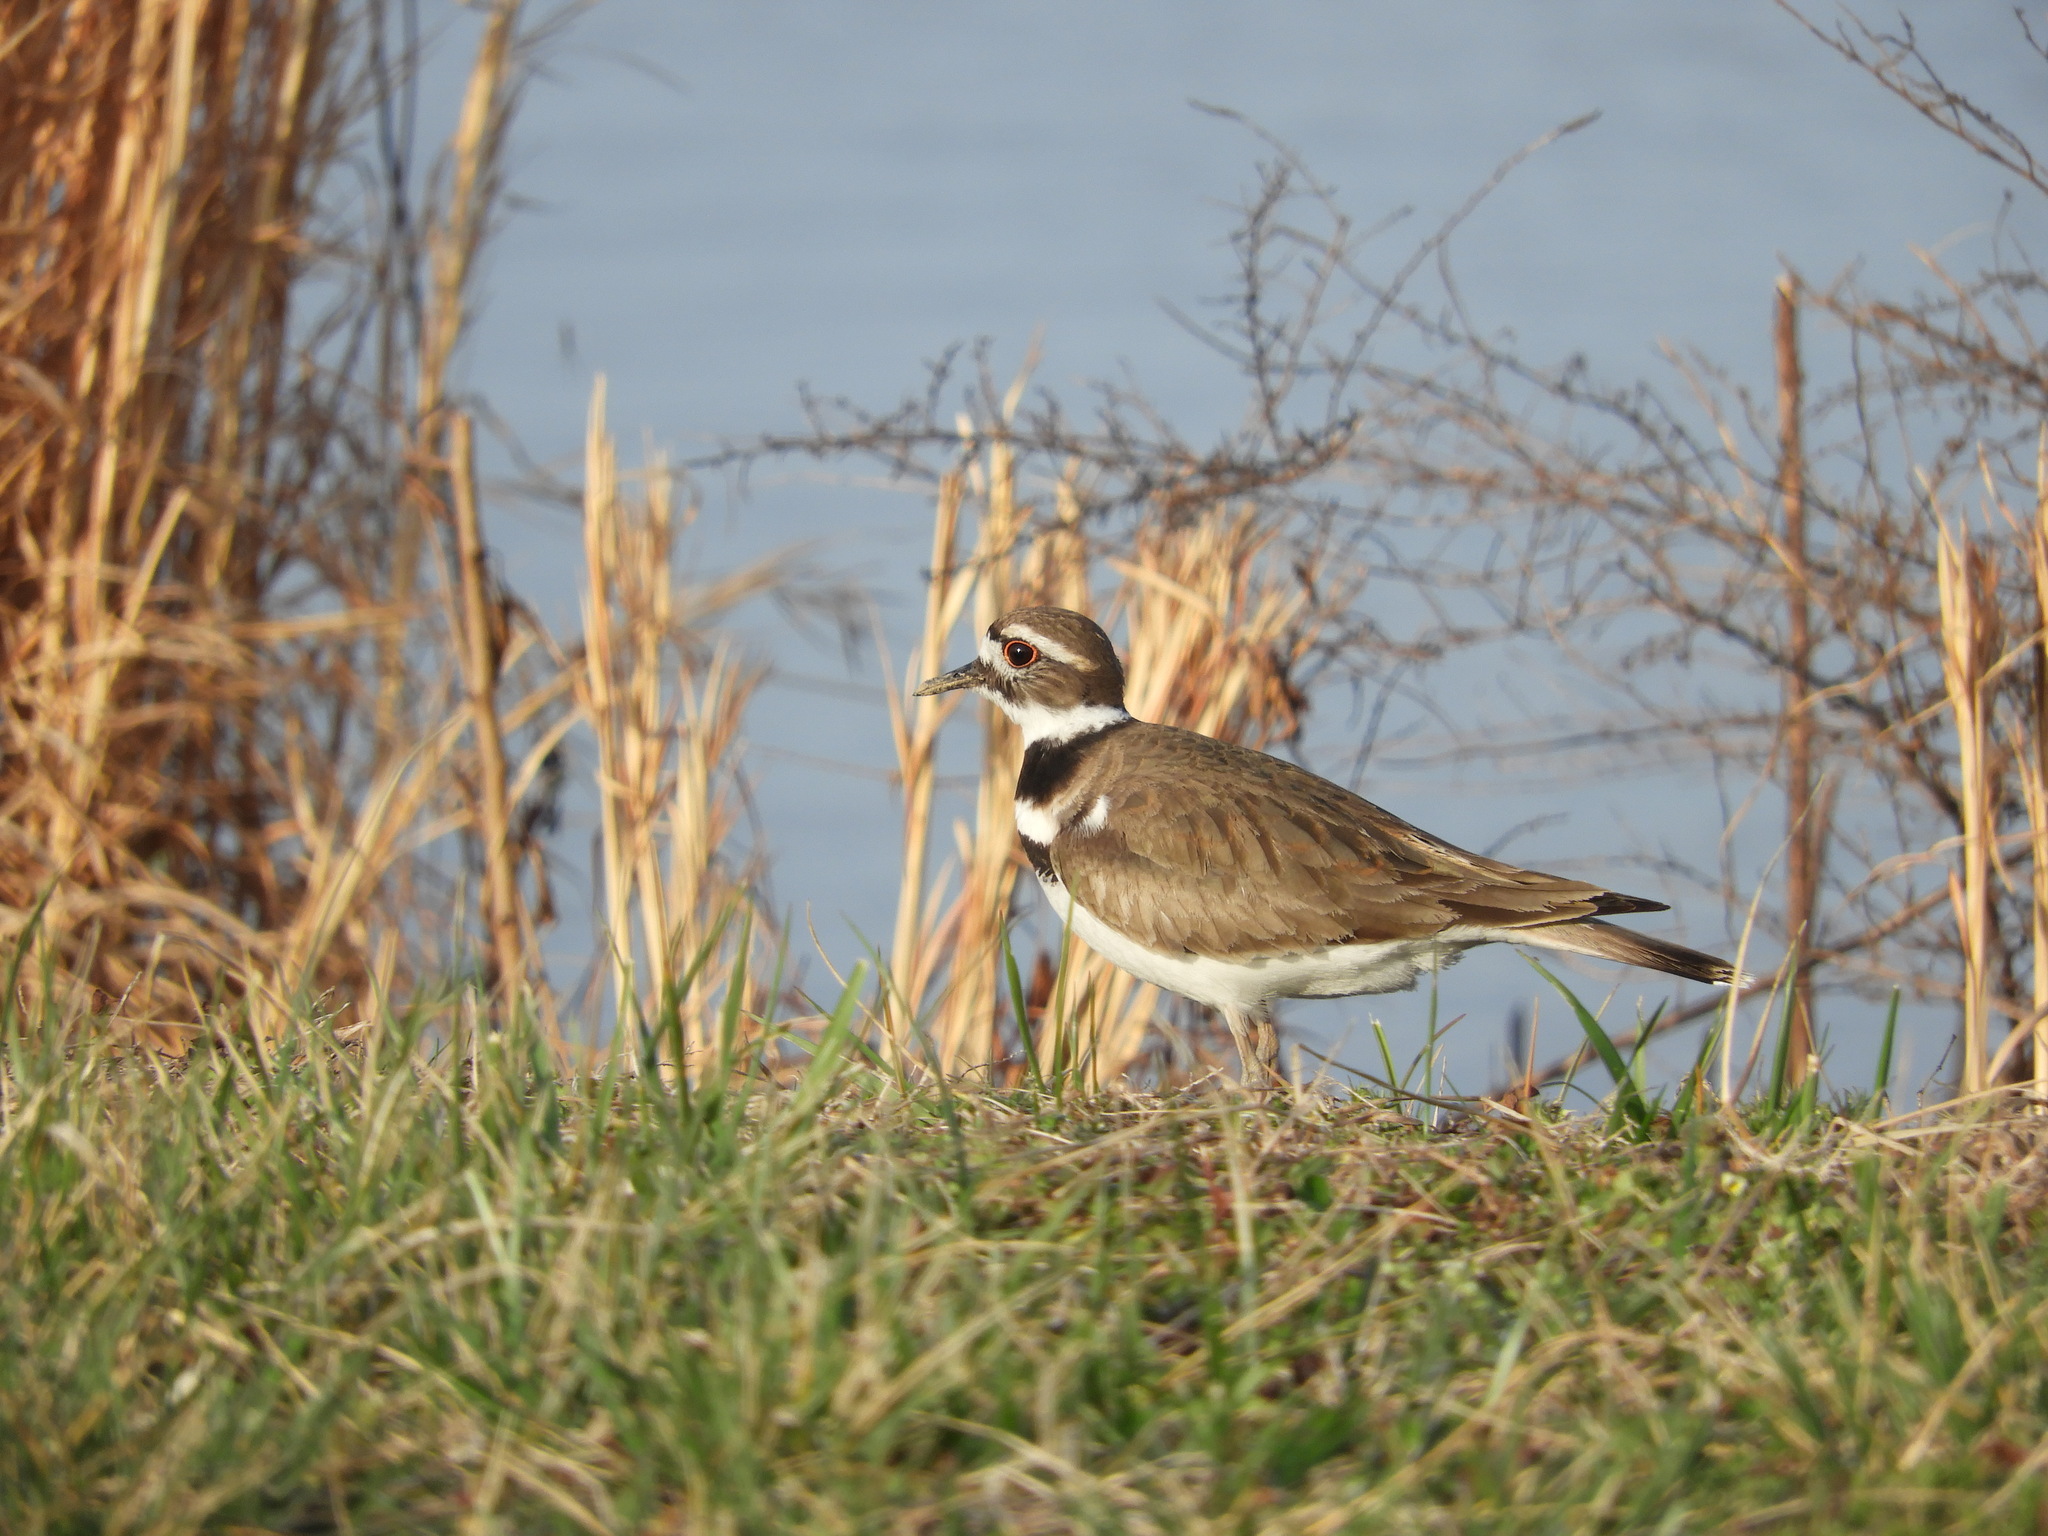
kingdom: Animalia
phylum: Chordata
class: Aves
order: Charadriiformes
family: Charadriidae
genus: Charadrius
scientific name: Charadrius vociferus
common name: Killdeer
